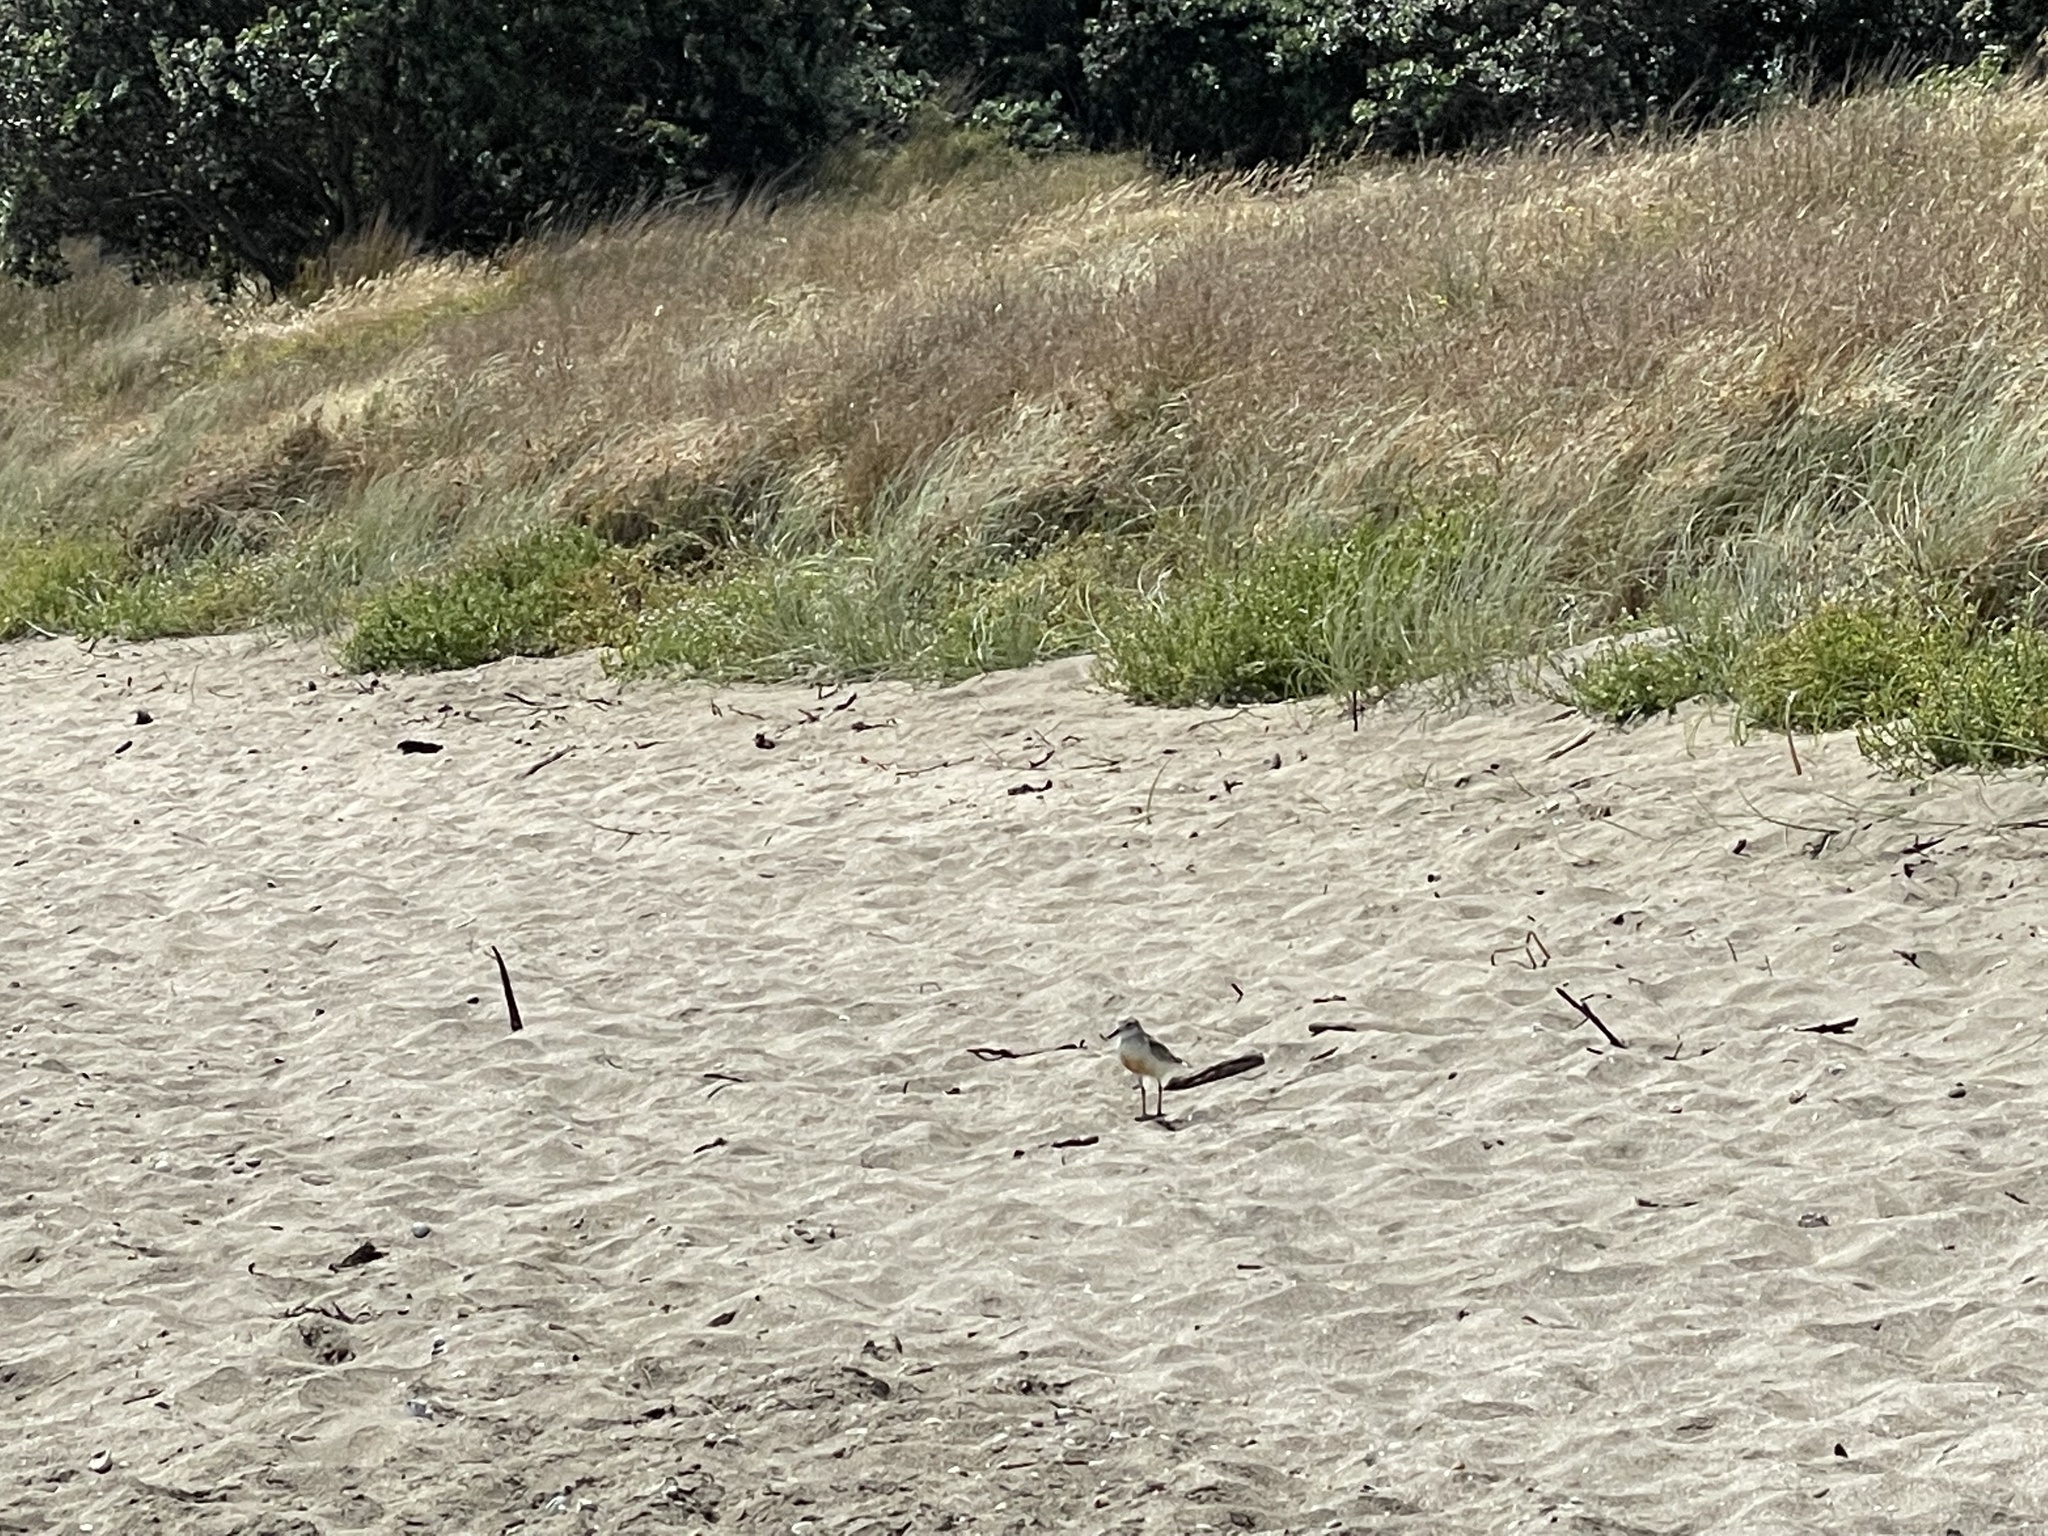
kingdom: Animalia
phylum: Chordata
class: Aves
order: Charadriiformes
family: Charadriidae
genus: Anarhynchus
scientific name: Anarhynchus
